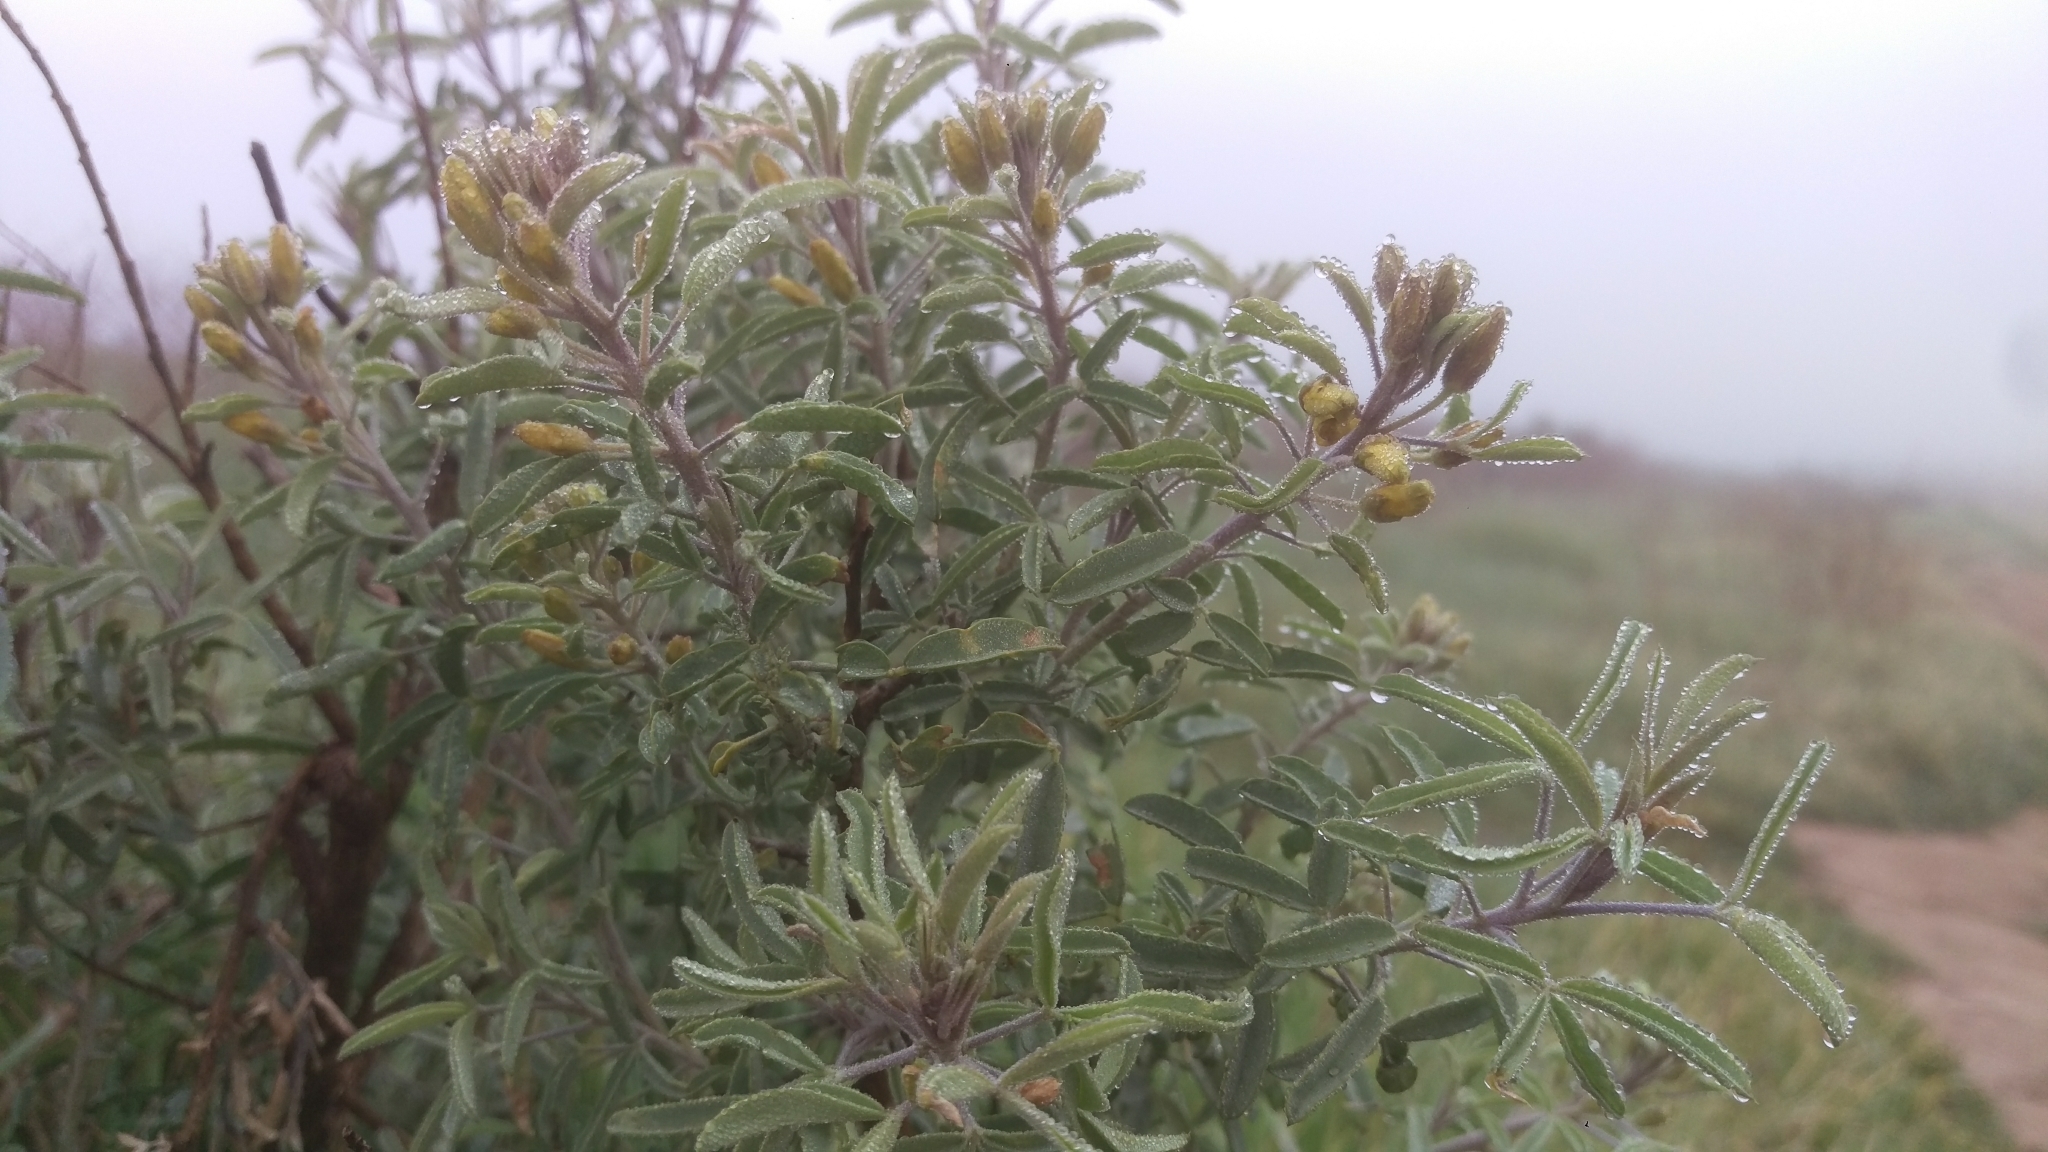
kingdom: Plantae
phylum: Tracheophyta
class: Magnoliopsida
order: Brassicales
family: Cleomaceae
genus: Cleomella
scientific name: Cleomella arborea
